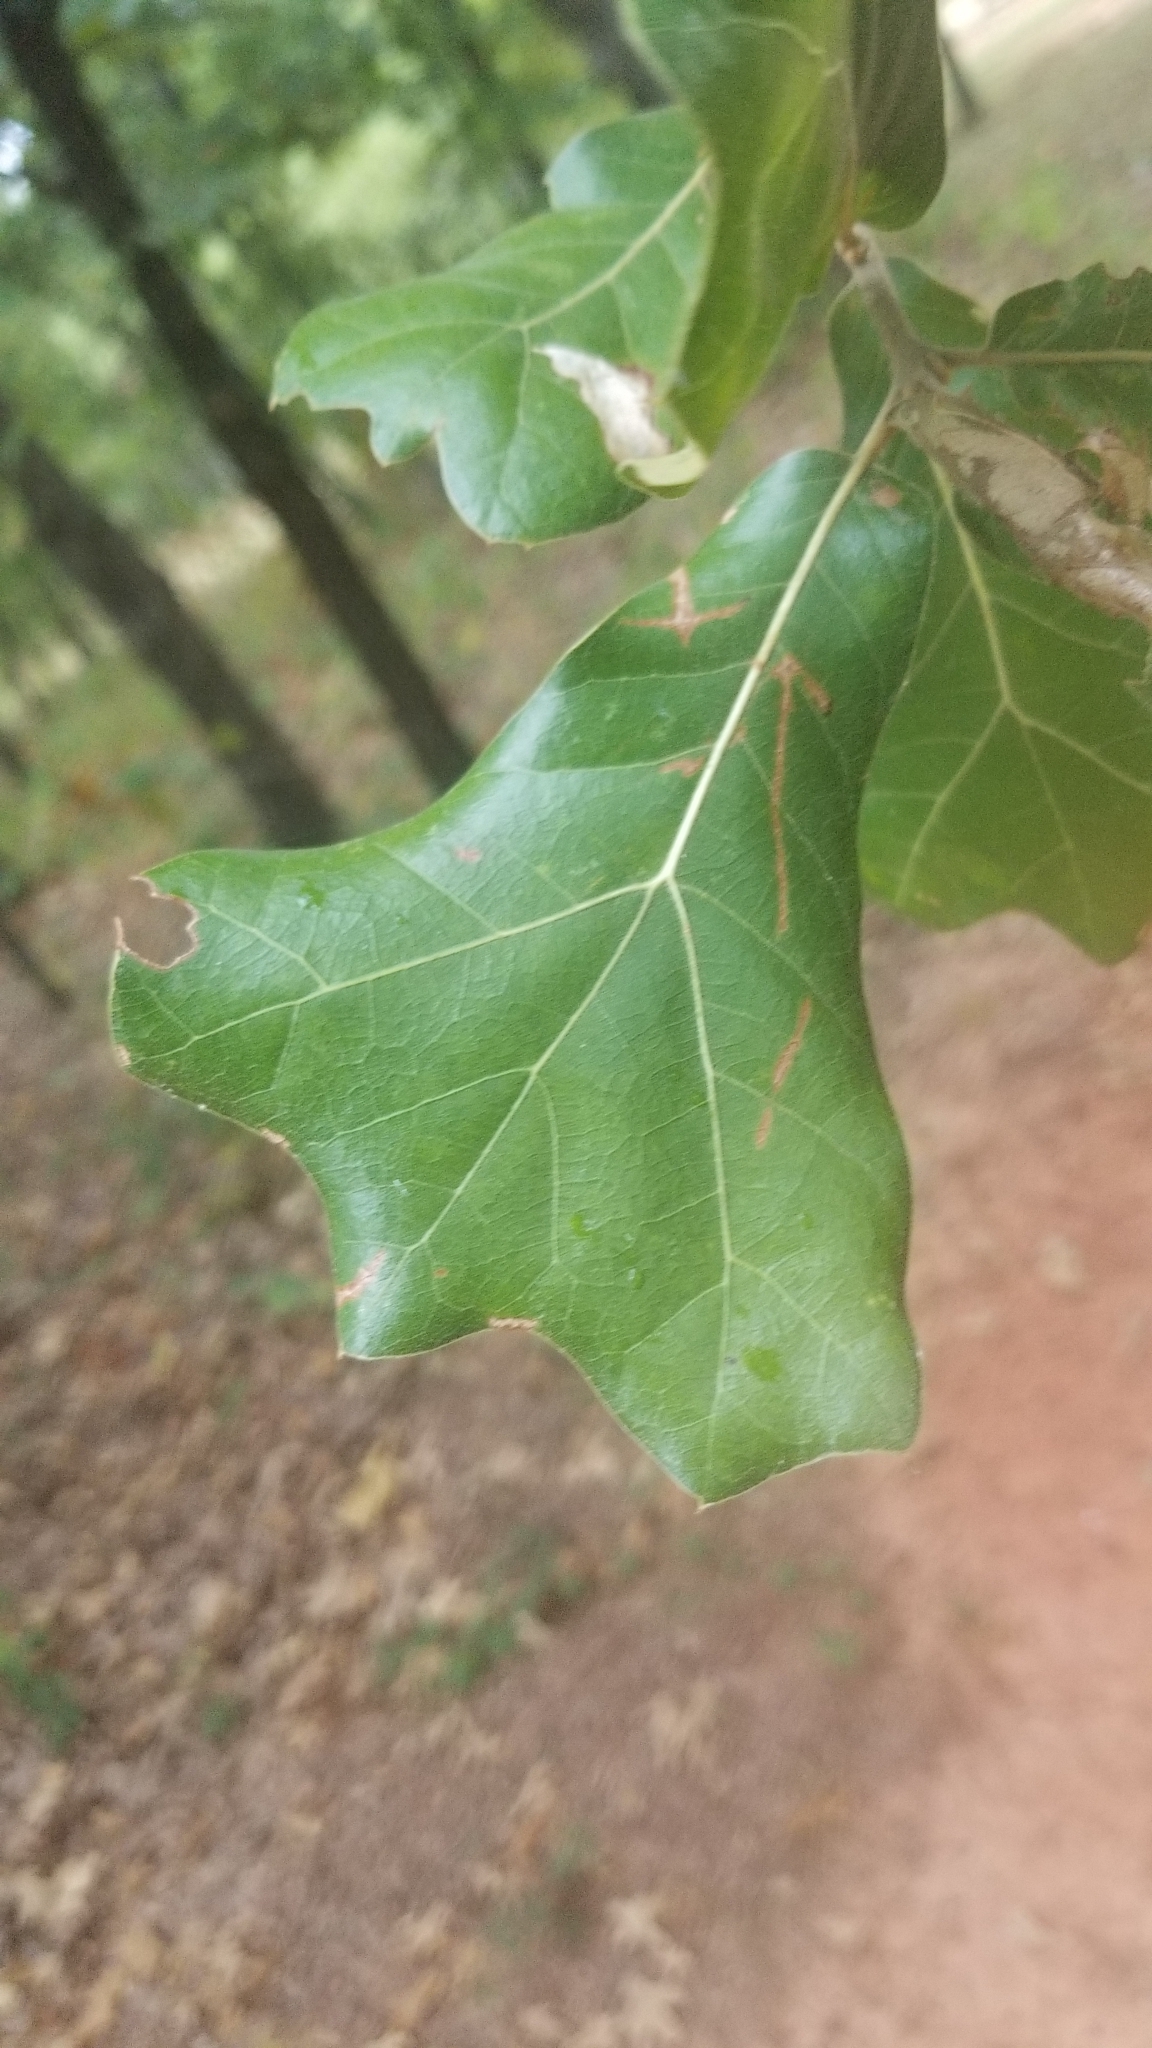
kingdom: Plantae
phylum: Tracheophyta
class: Magnoliopsida
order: Fagales
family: Fagaceae
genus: Quercus
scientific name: Quercus marilandica
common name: Blackjack oak
